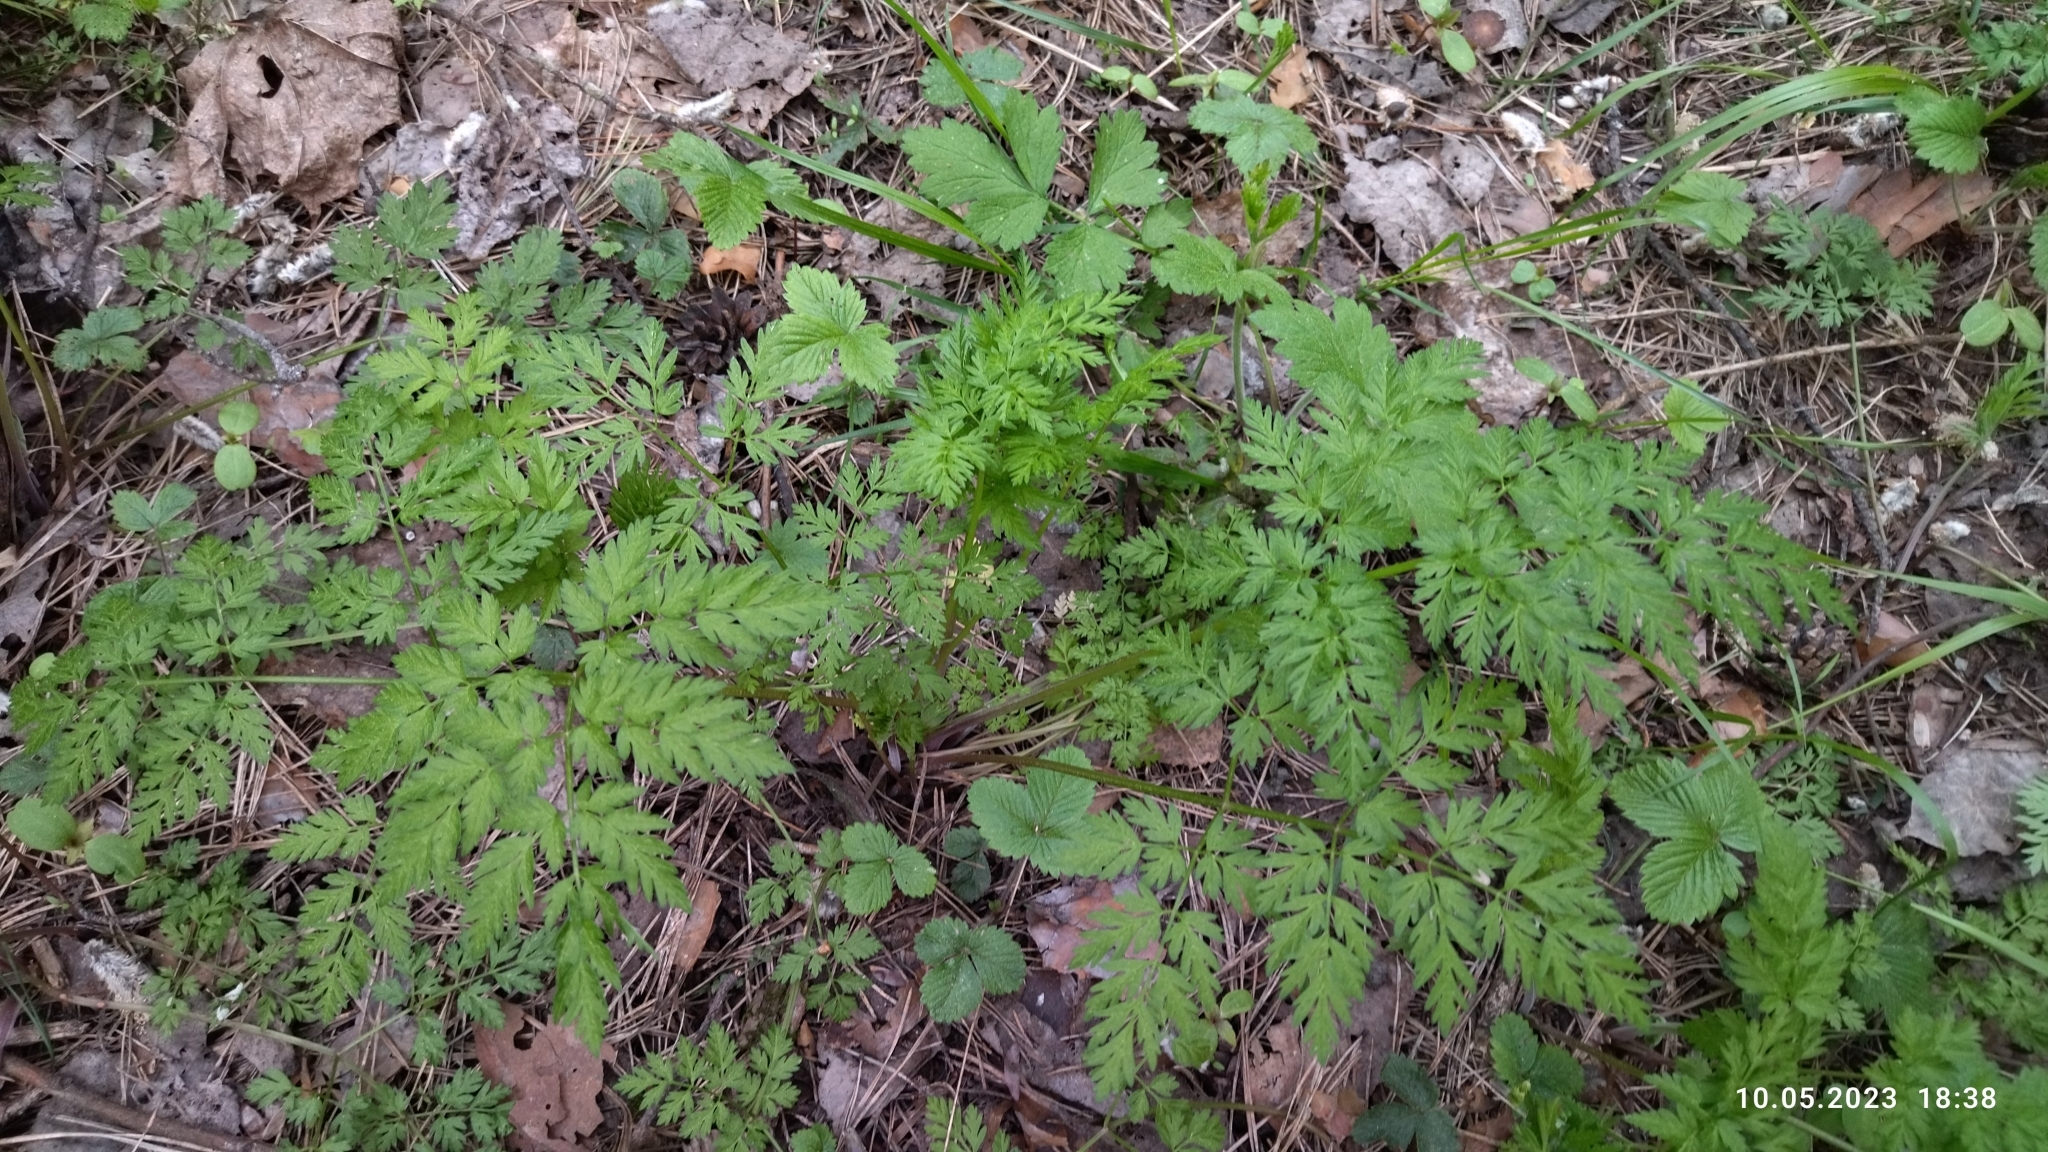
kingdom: Plantae
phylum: Tracheophyta
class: Magnoliopsida
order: Apiales
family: Apiaceae
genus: Anthriscus
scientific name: Anthriscus sylvestris
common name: Cow parsley
